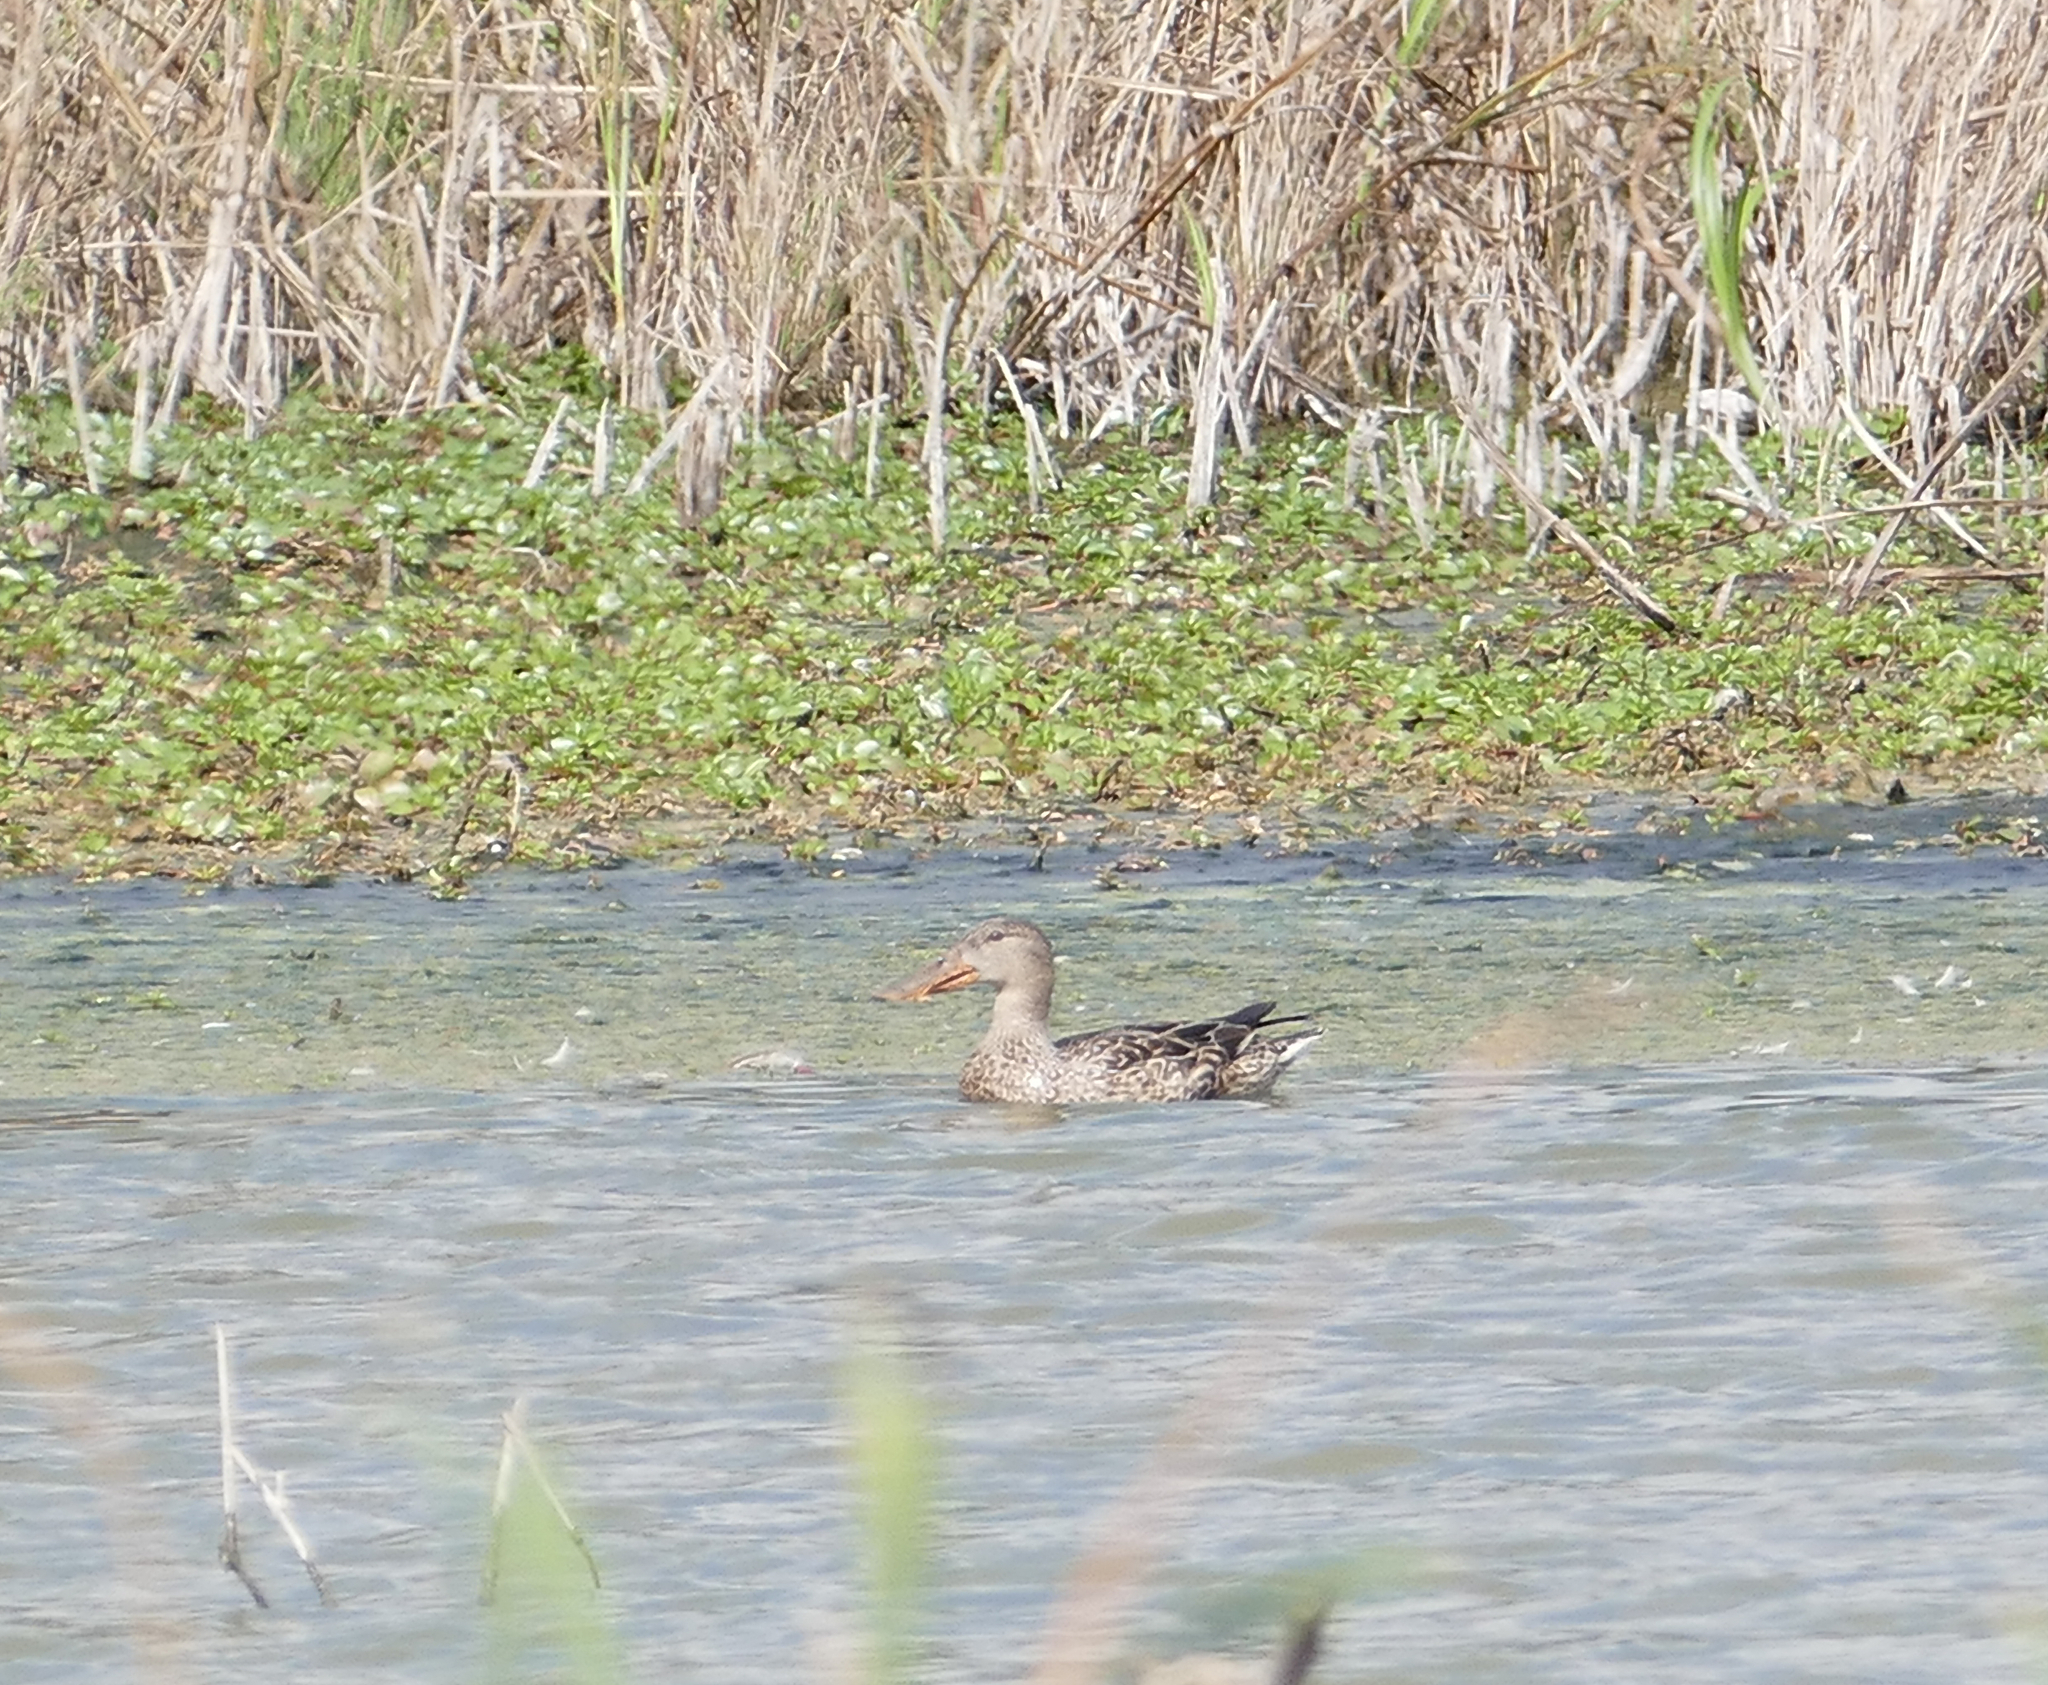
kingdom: Animalia
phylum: Chordata
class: Aves
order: Anseriformes
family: Anatidae
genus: Spatula
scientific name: Spatula clypeata
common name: Northern shoveler
